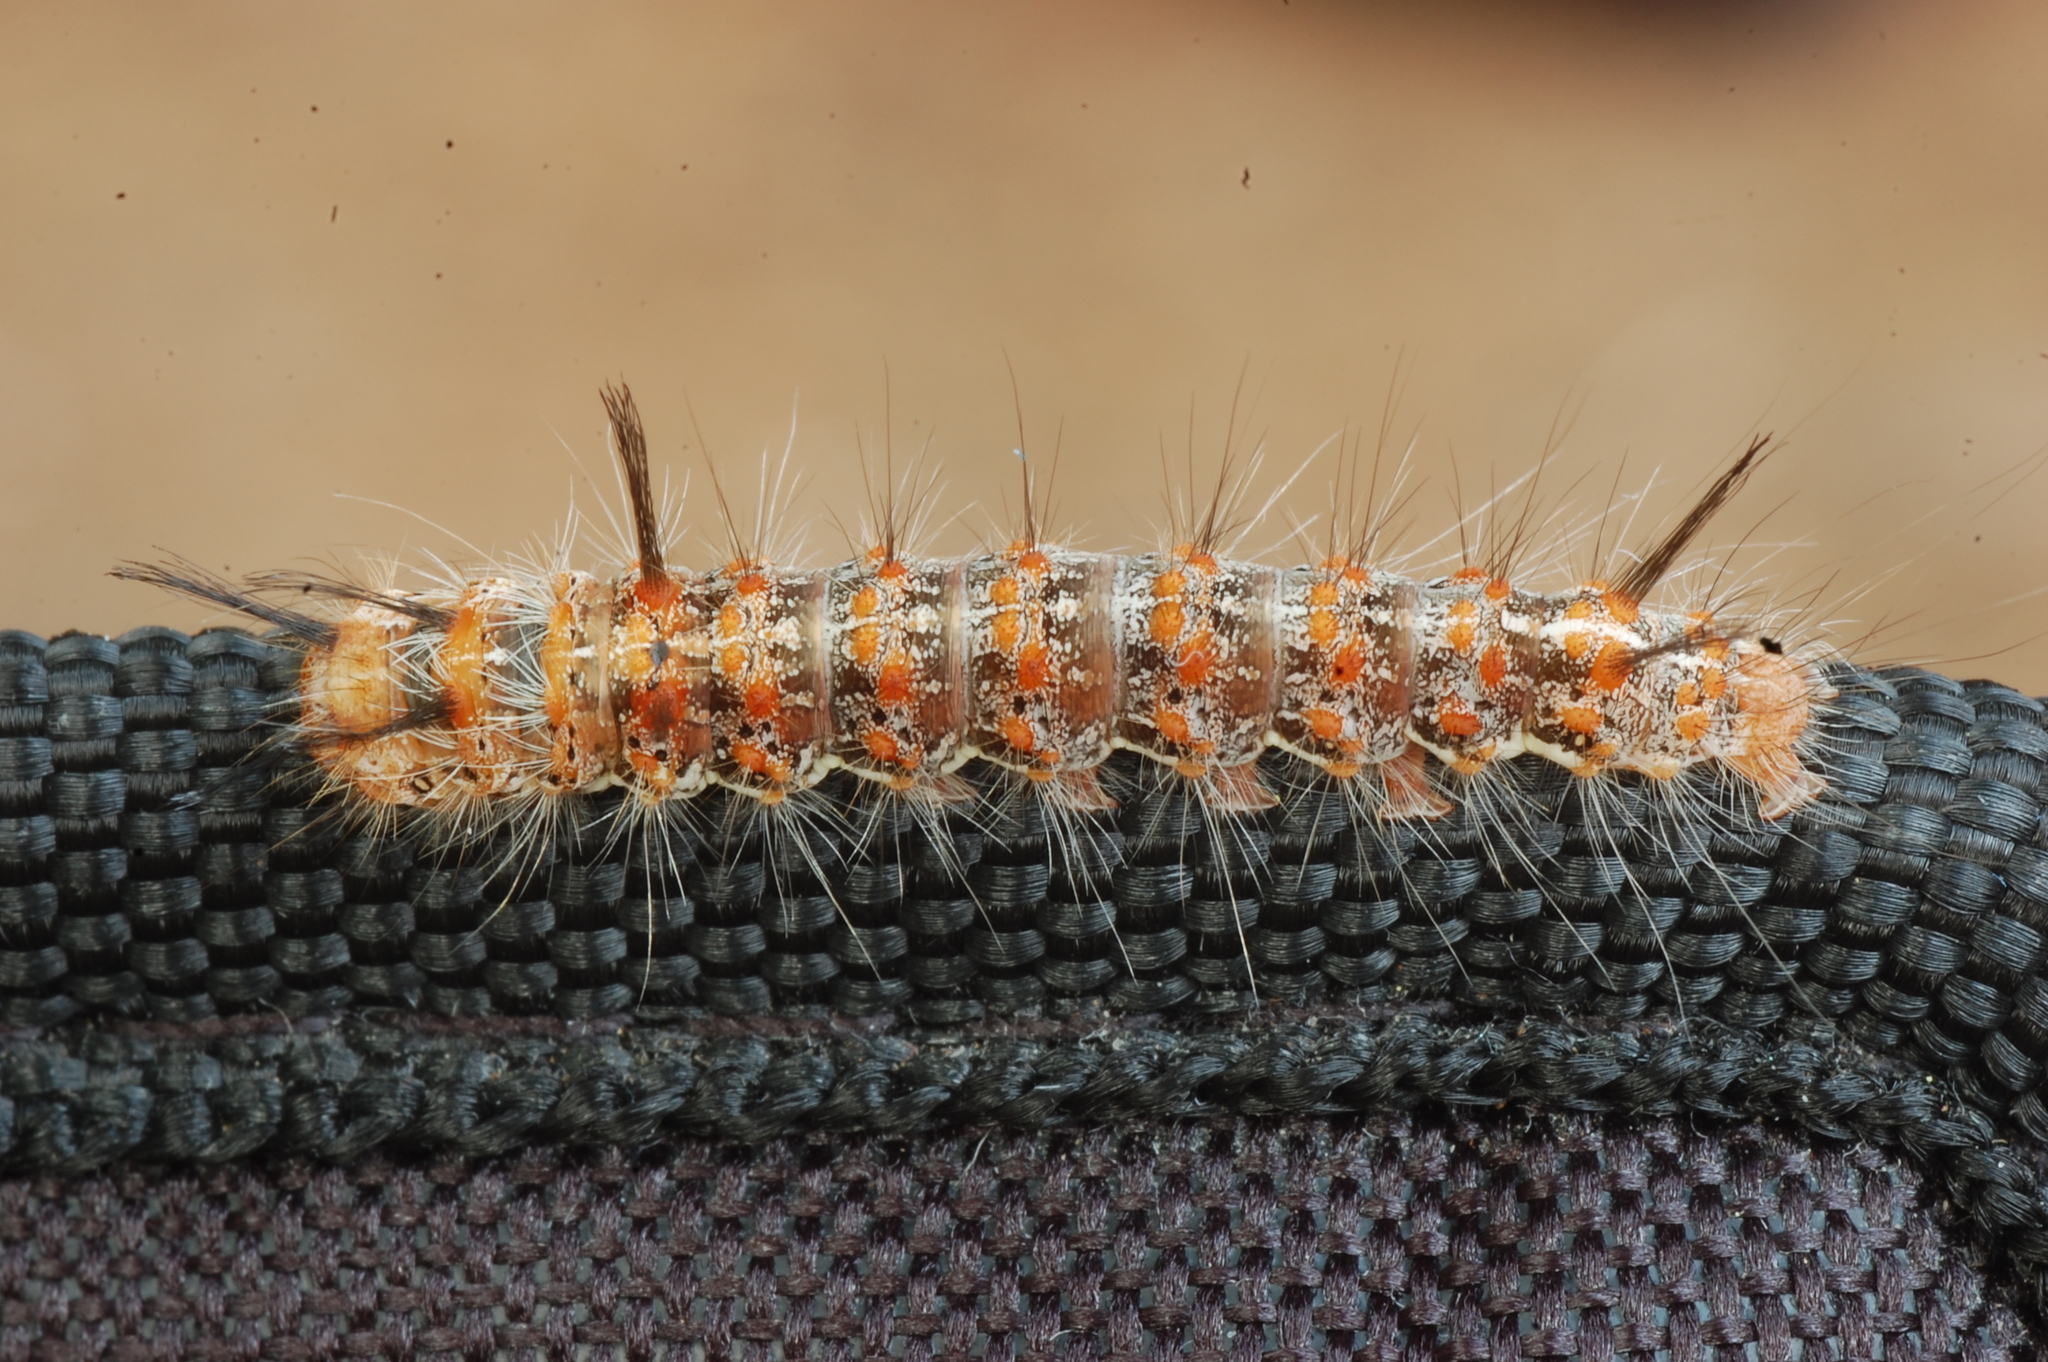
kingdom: Animalia
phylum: Arthropoda
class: Insecta
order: Lepidoptera
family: Noctuidae
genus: Panthea
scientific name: Panthea furcilla
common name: Eastern panthea moth
